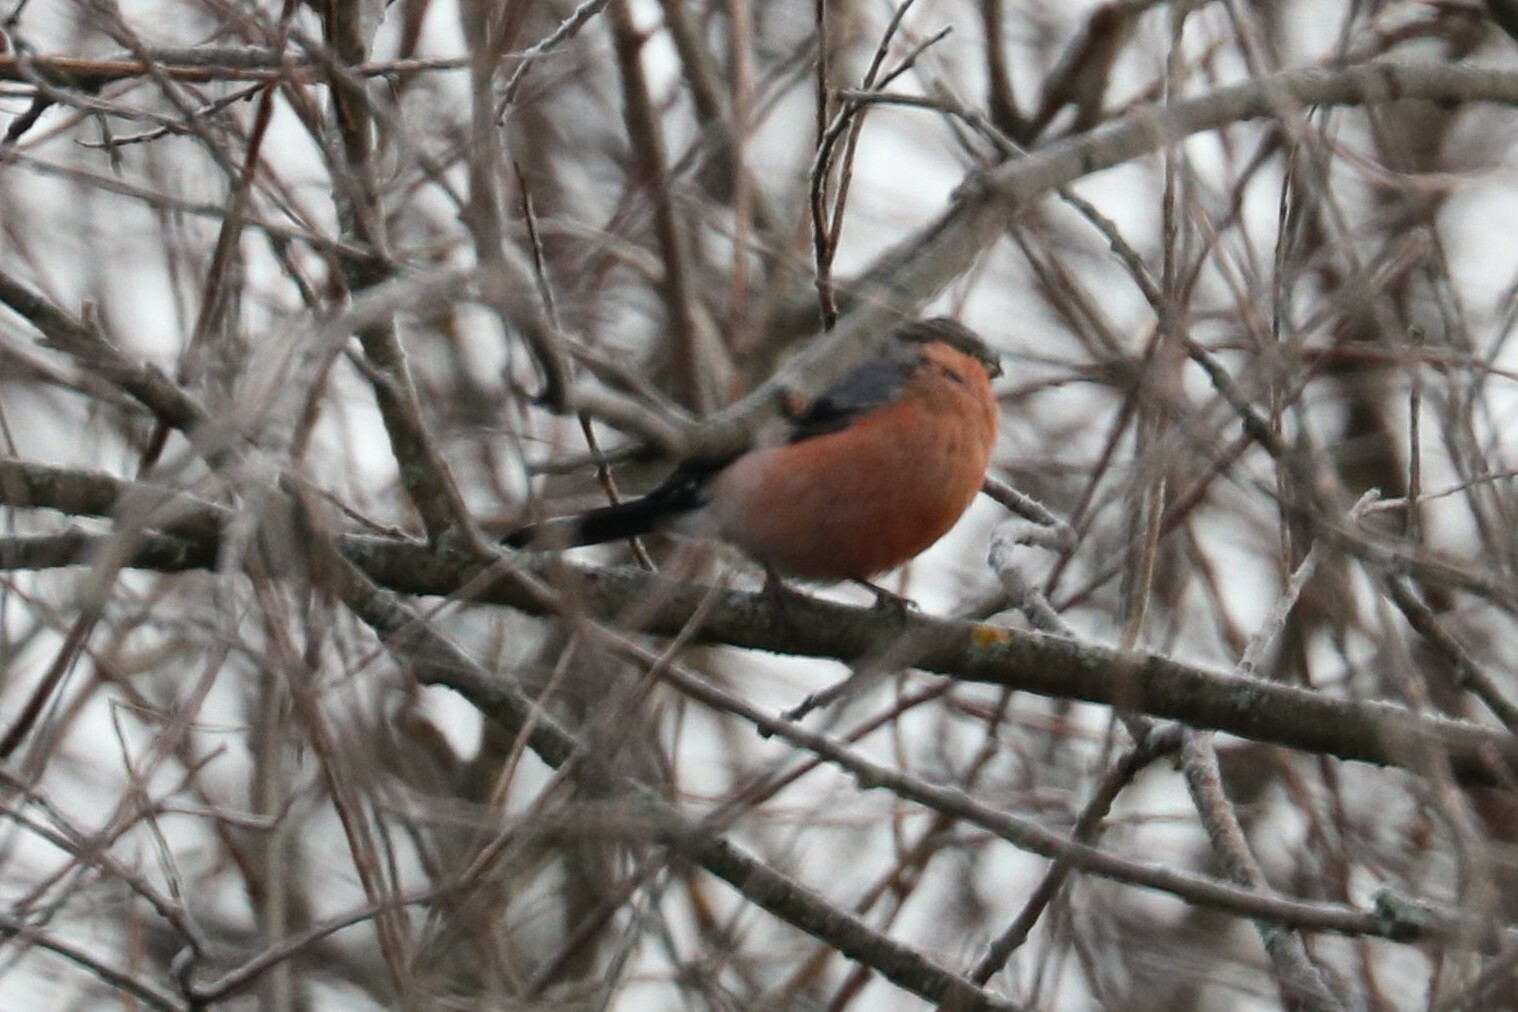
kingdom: Animalia
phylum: Chordata
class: Aves
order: Passeriformes
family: Fringillidae
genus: Pyrrhula
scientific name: Pyrrhula pyrrhula
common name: Eurasian bullfinch
